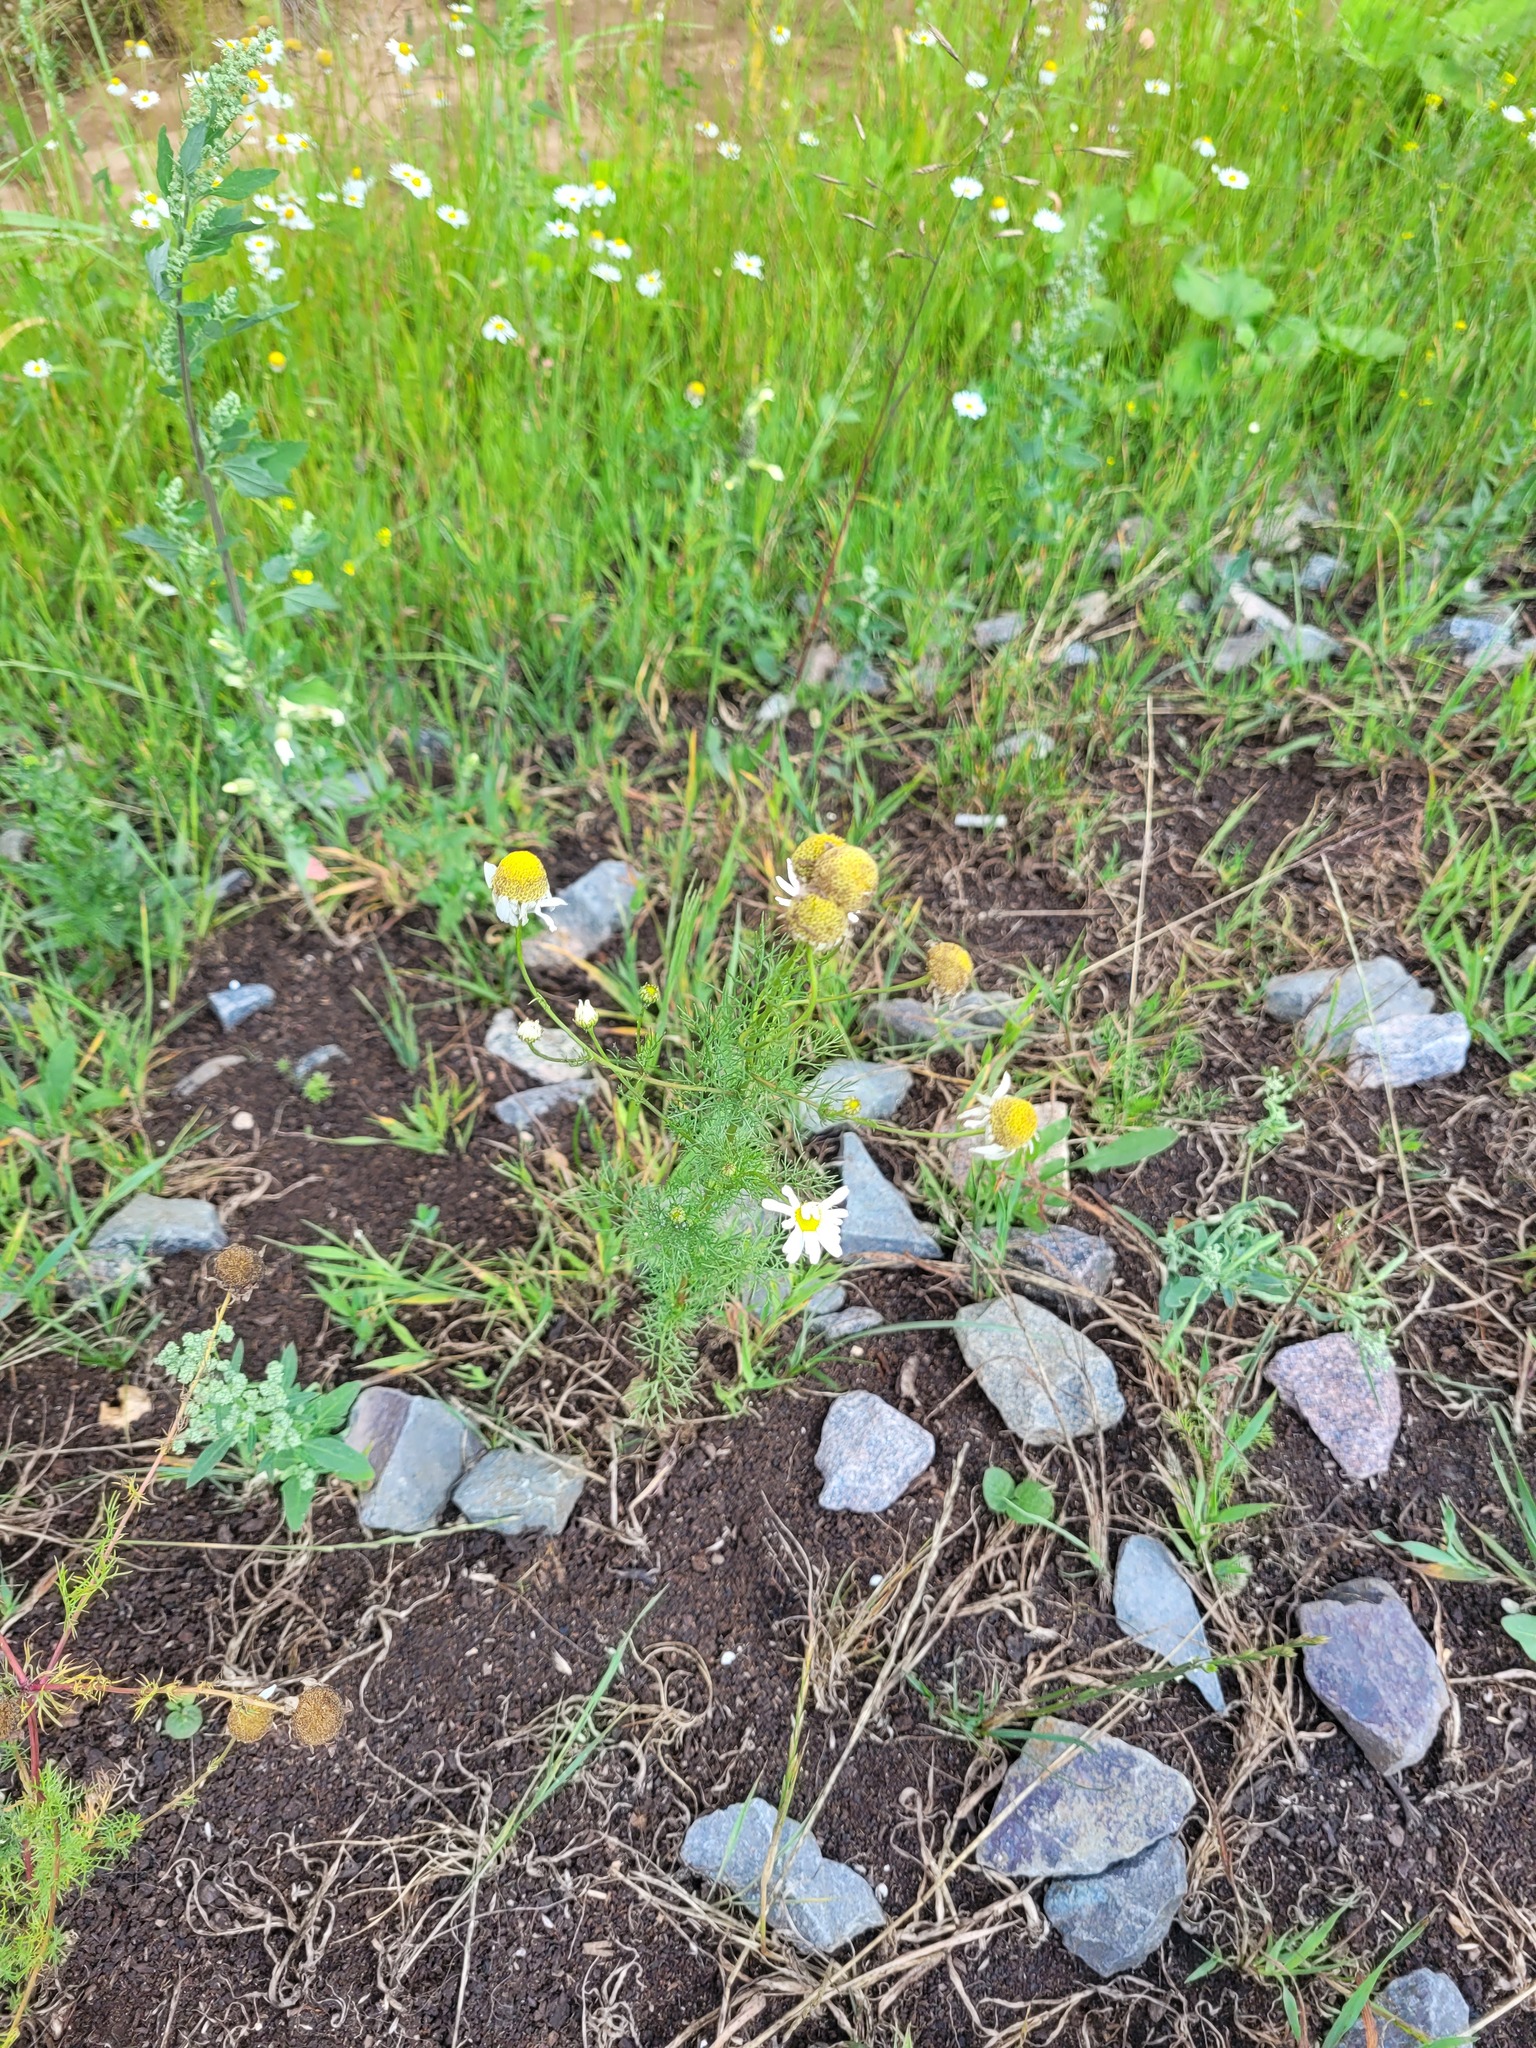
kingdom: Plantae
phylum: Tracheophyta
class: Magnoliopsida
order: Asterales
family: Asteraceae
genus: Tripleurospermum
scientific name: Tripleurospermum inodorum
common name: Scentless mayweed
